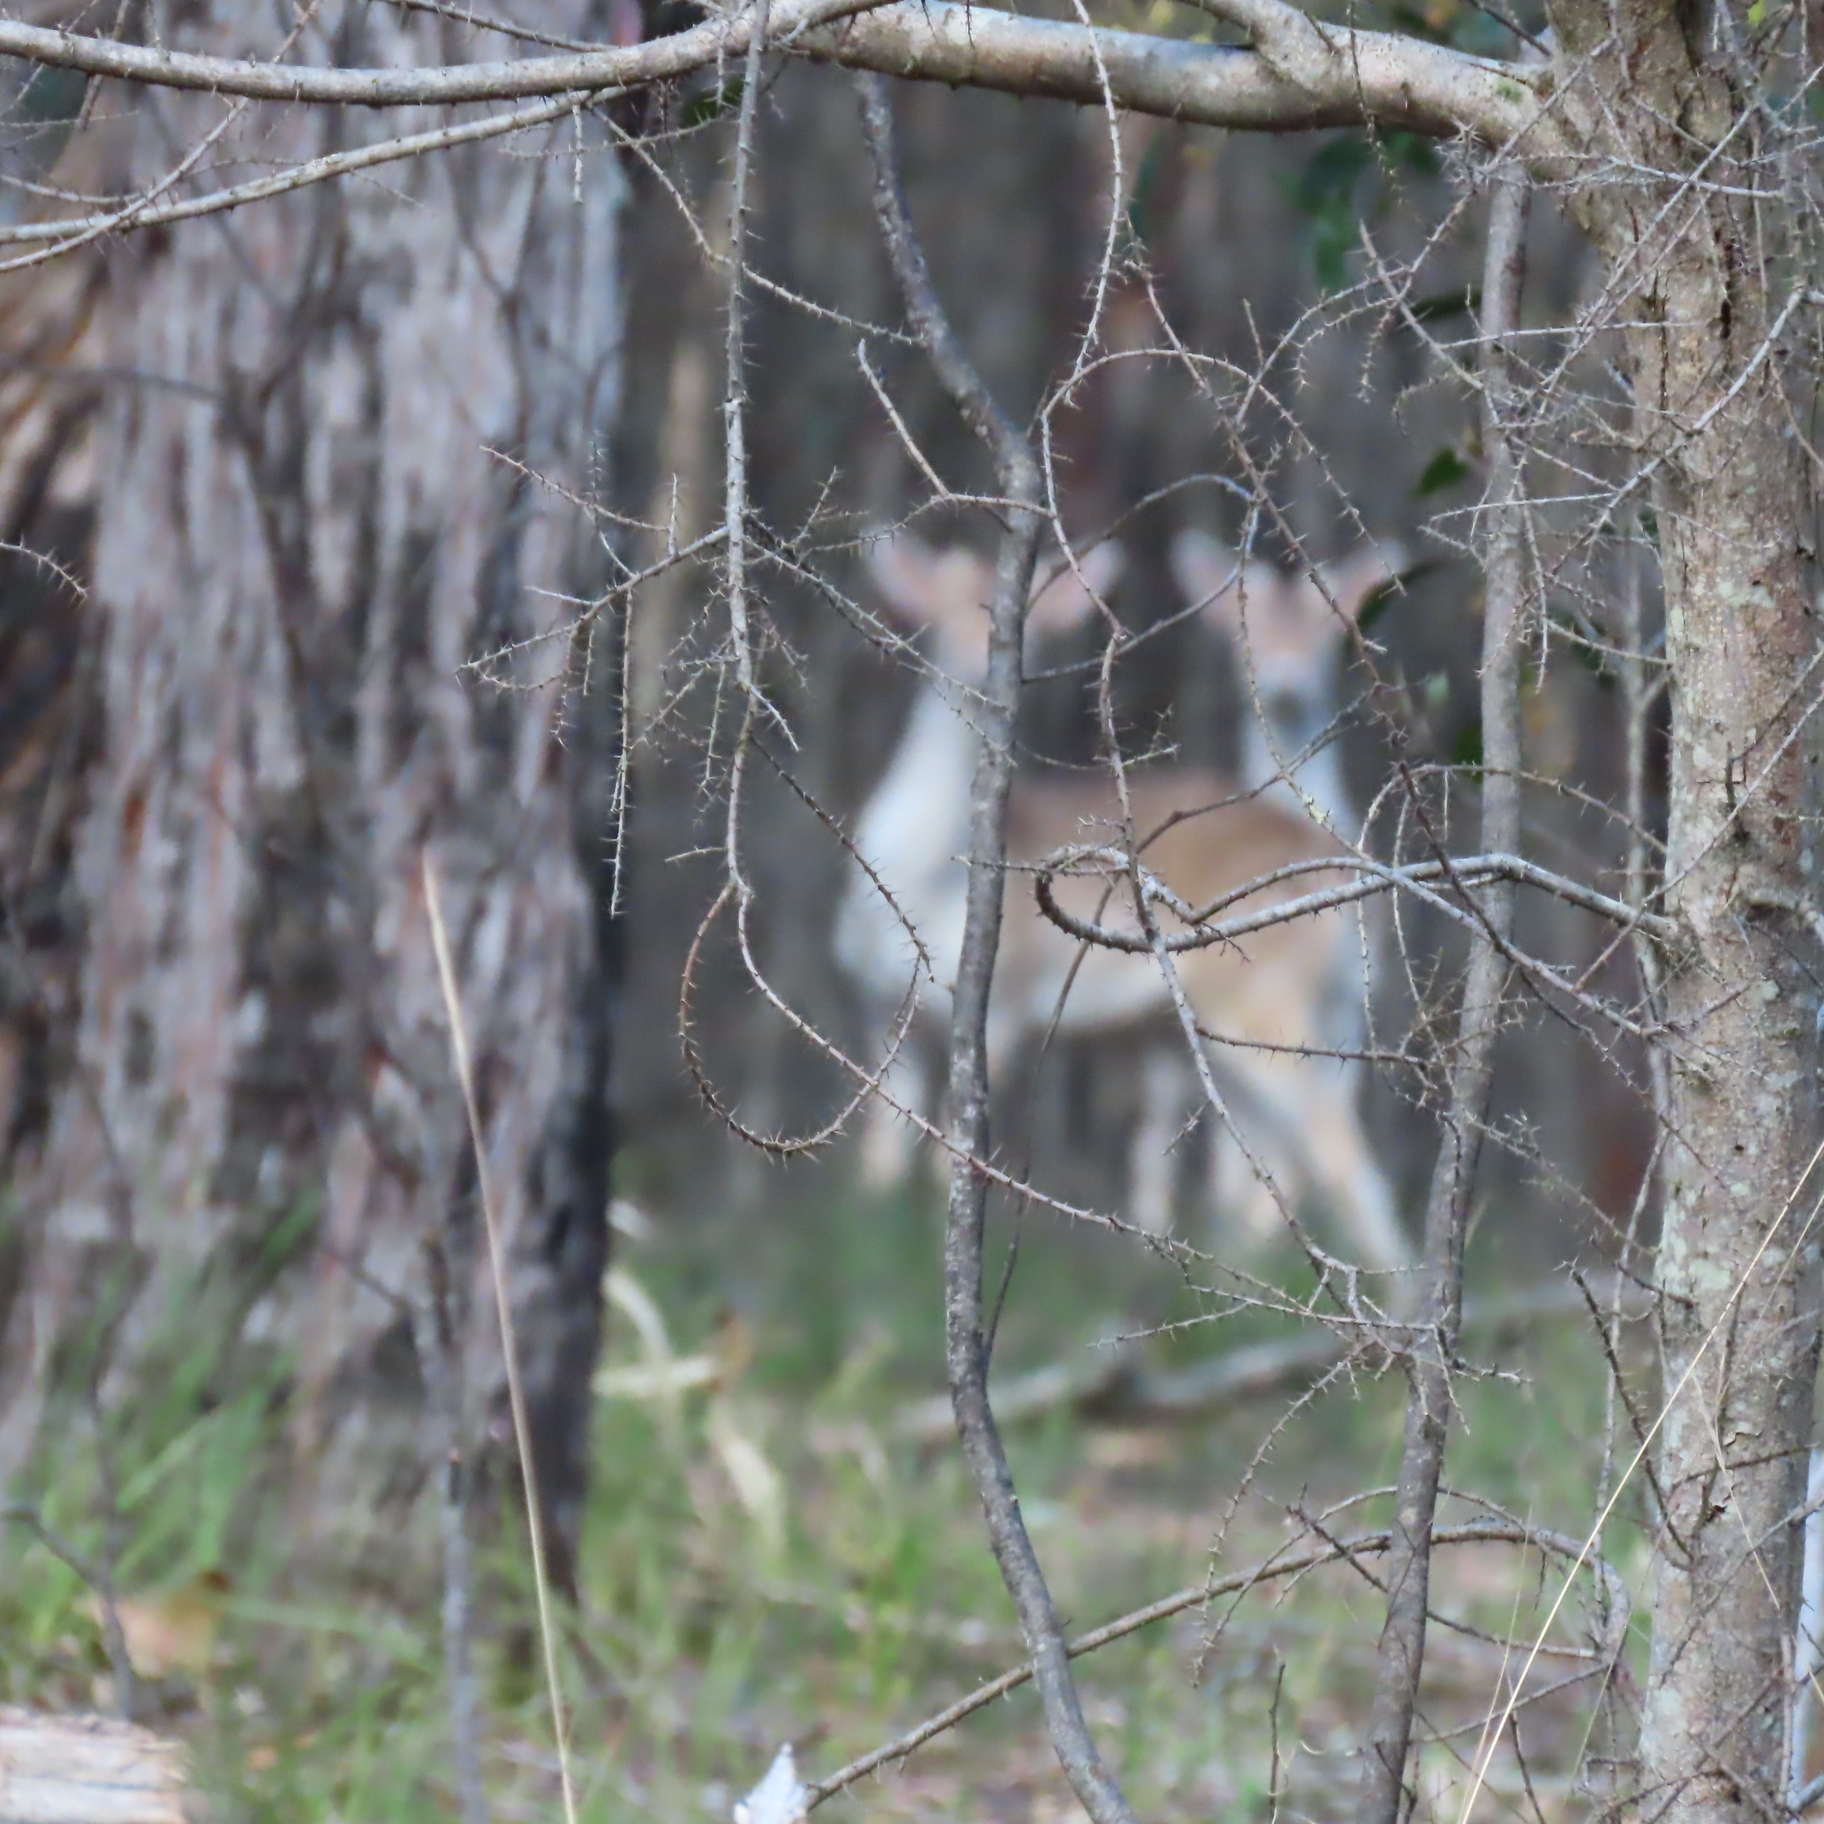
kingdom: Animalia
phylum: Chordata
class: Mammalia
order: Artiodactyla
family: Cervidae
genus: Dama
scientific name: Dama dama
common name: Fallow deer
